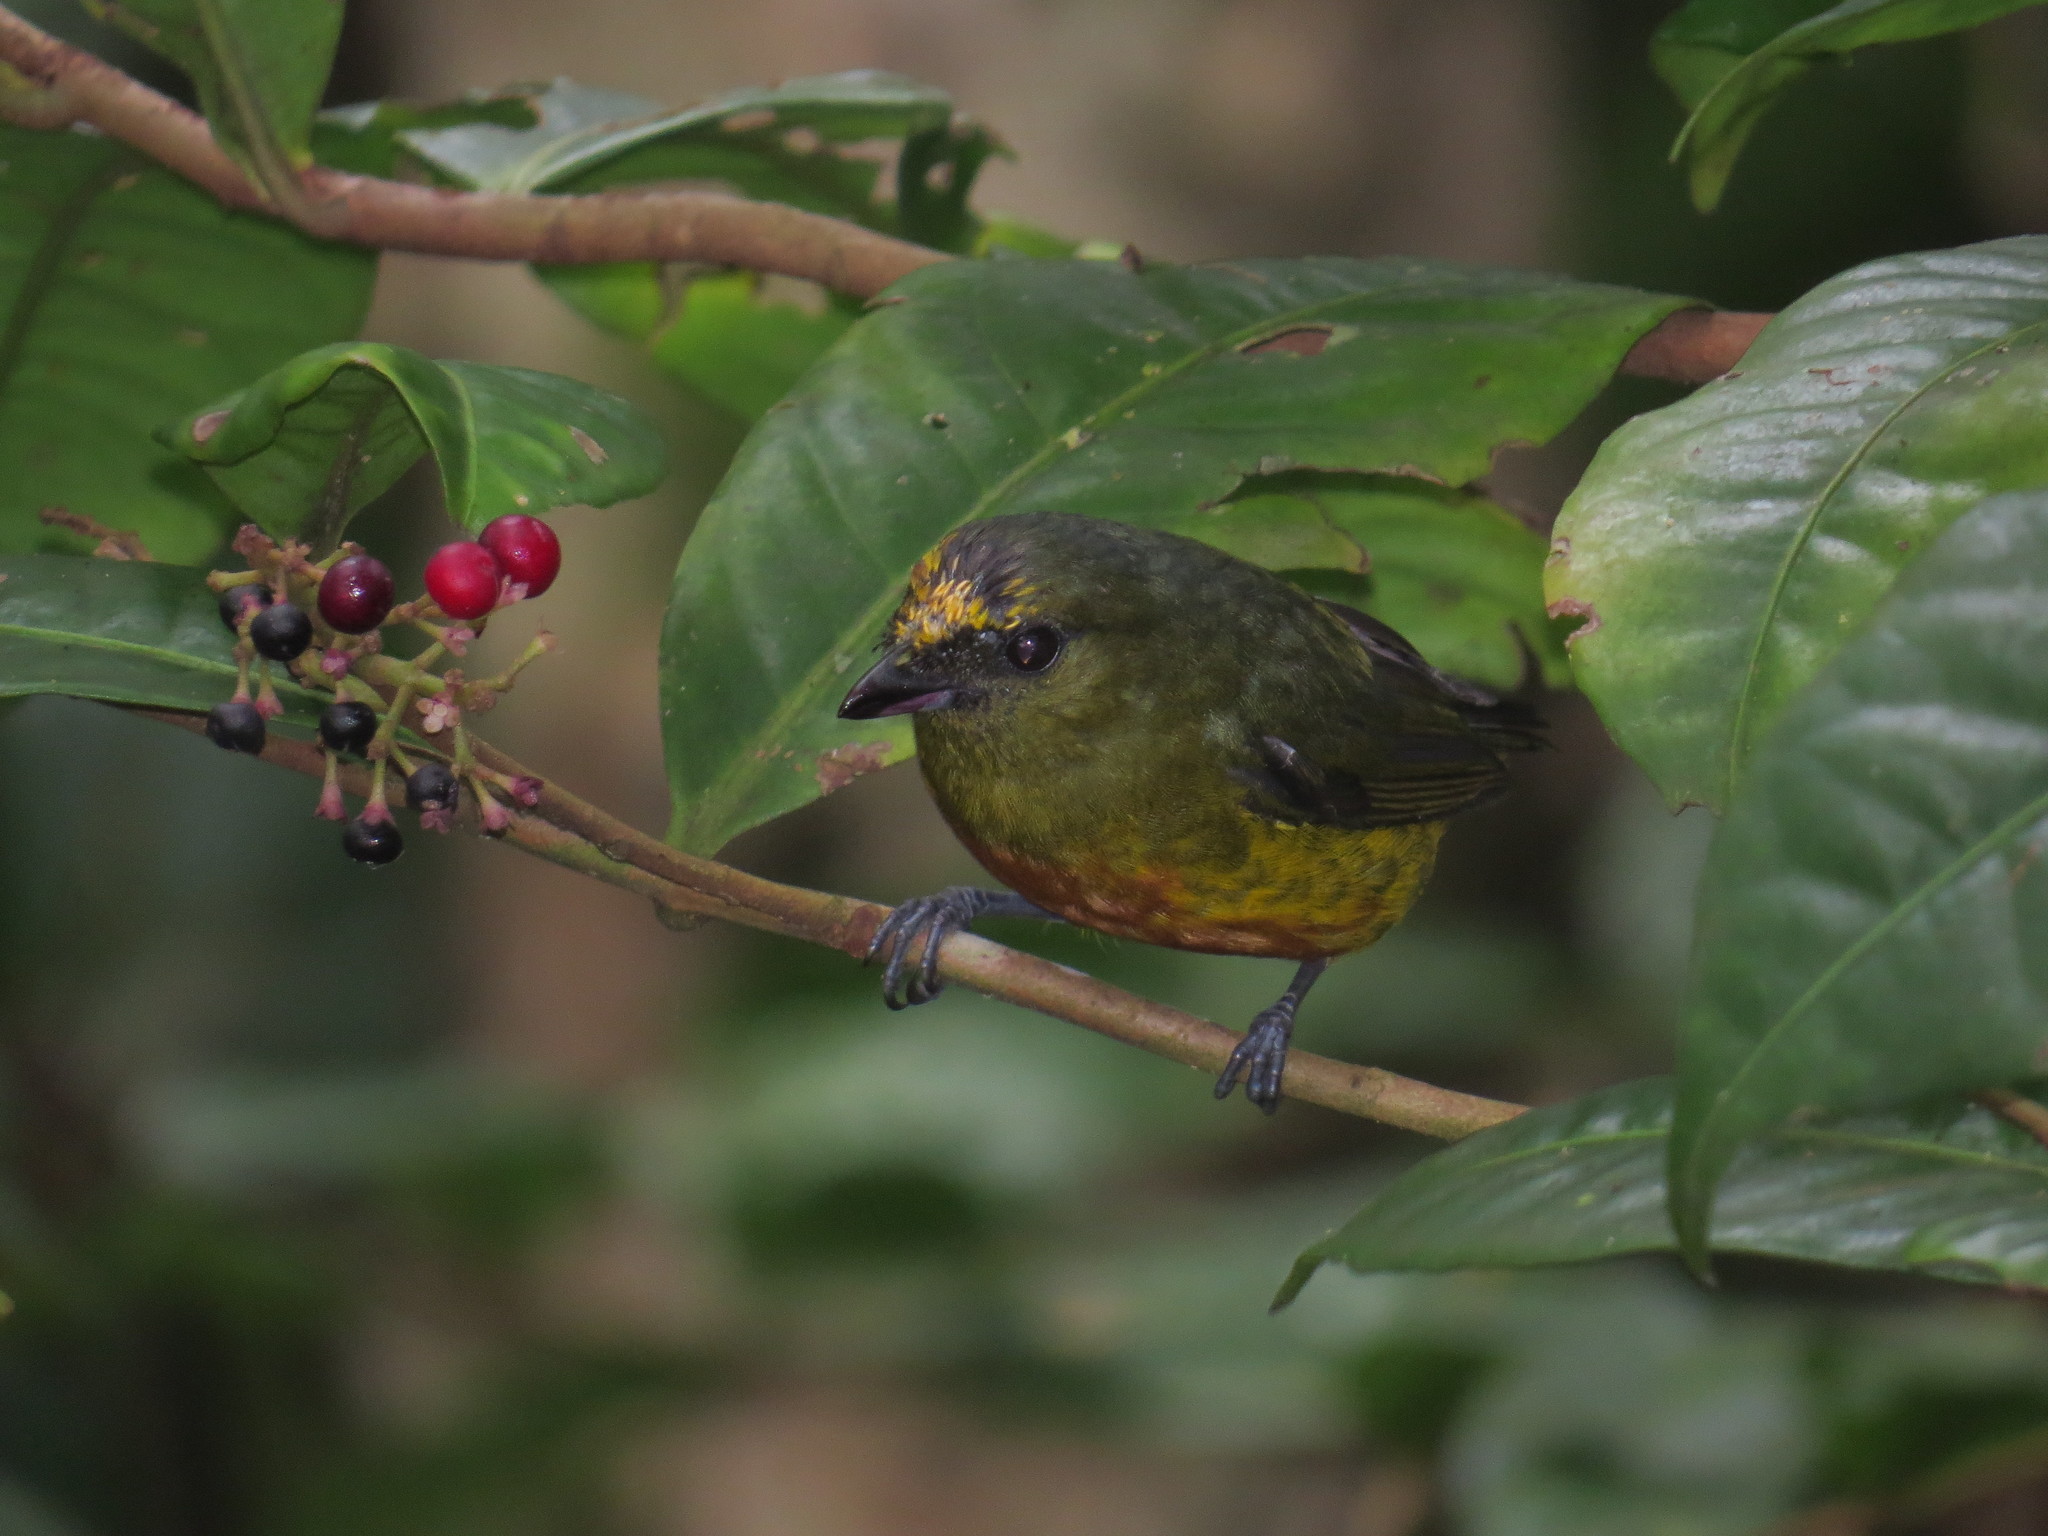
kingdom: Animalia
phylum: Chordata
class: Aves
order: Passeriformes
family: Fringillidae
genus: Euphonia
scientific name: Euphonia gouldi
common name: Olive-backed euphonia
